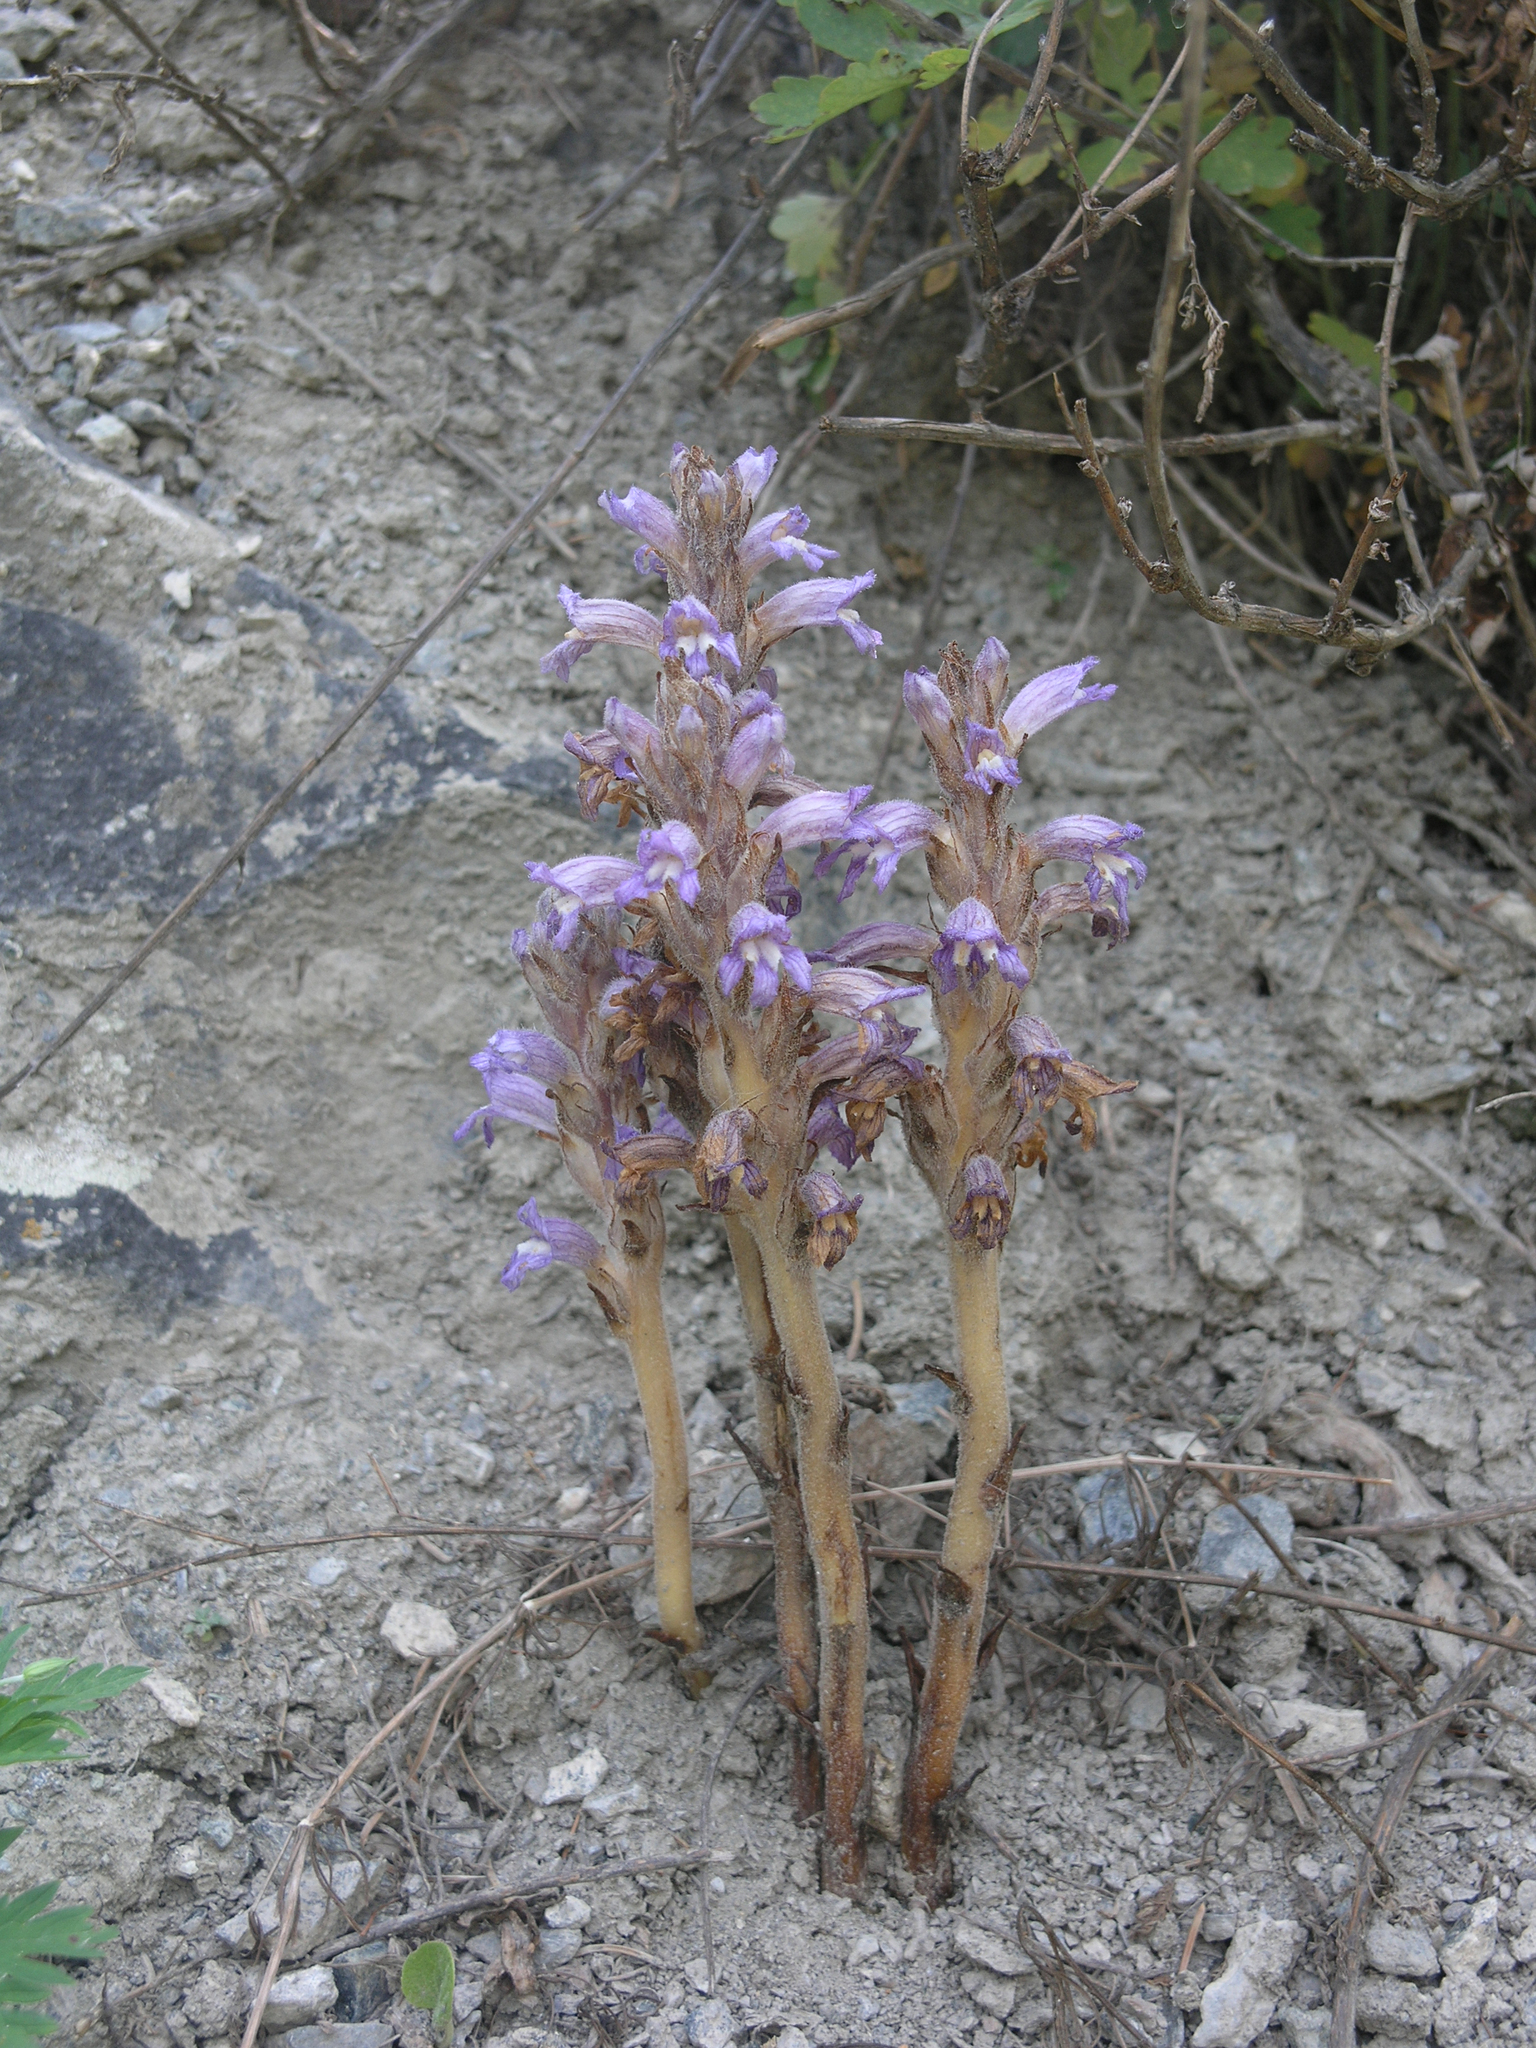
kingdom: Plantae
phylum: Tracheophyta
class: Magnoliopsida
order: Lamiales
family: Orobanchaceae
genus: Phelipanche
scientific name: Phelipanche caesia
